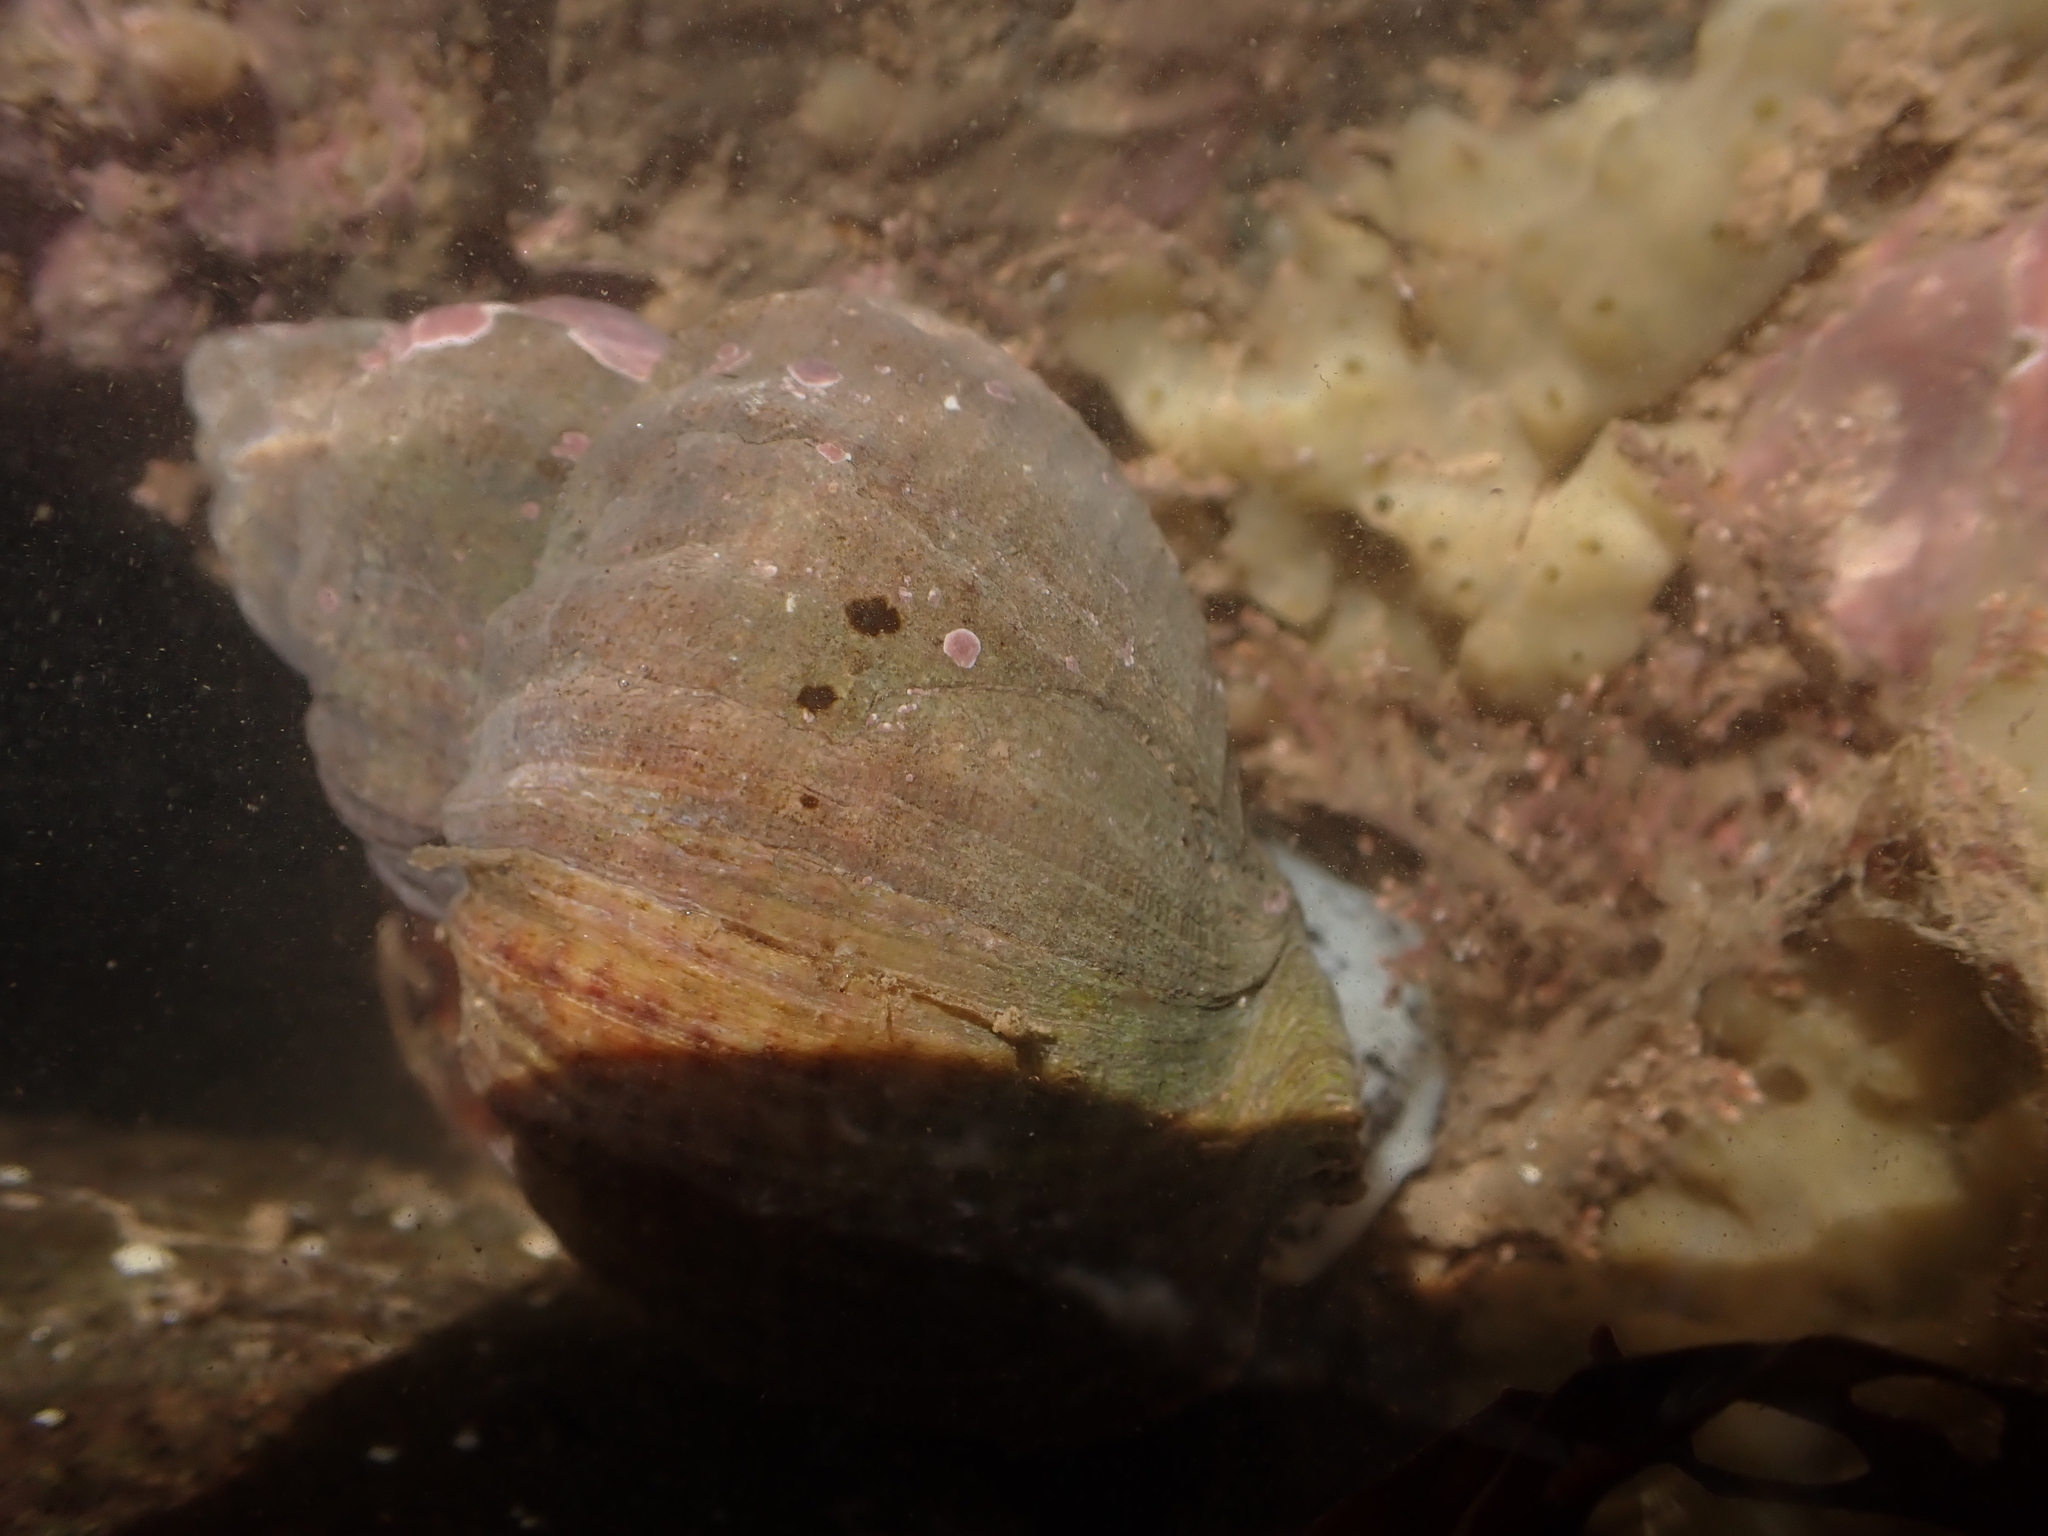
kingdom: Animalia
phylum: Mollusca
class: Gastropoda
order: Neogastropoda
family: Buccinidae
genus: Buccinum
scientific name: Buccinum undatum
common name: Common whelk
